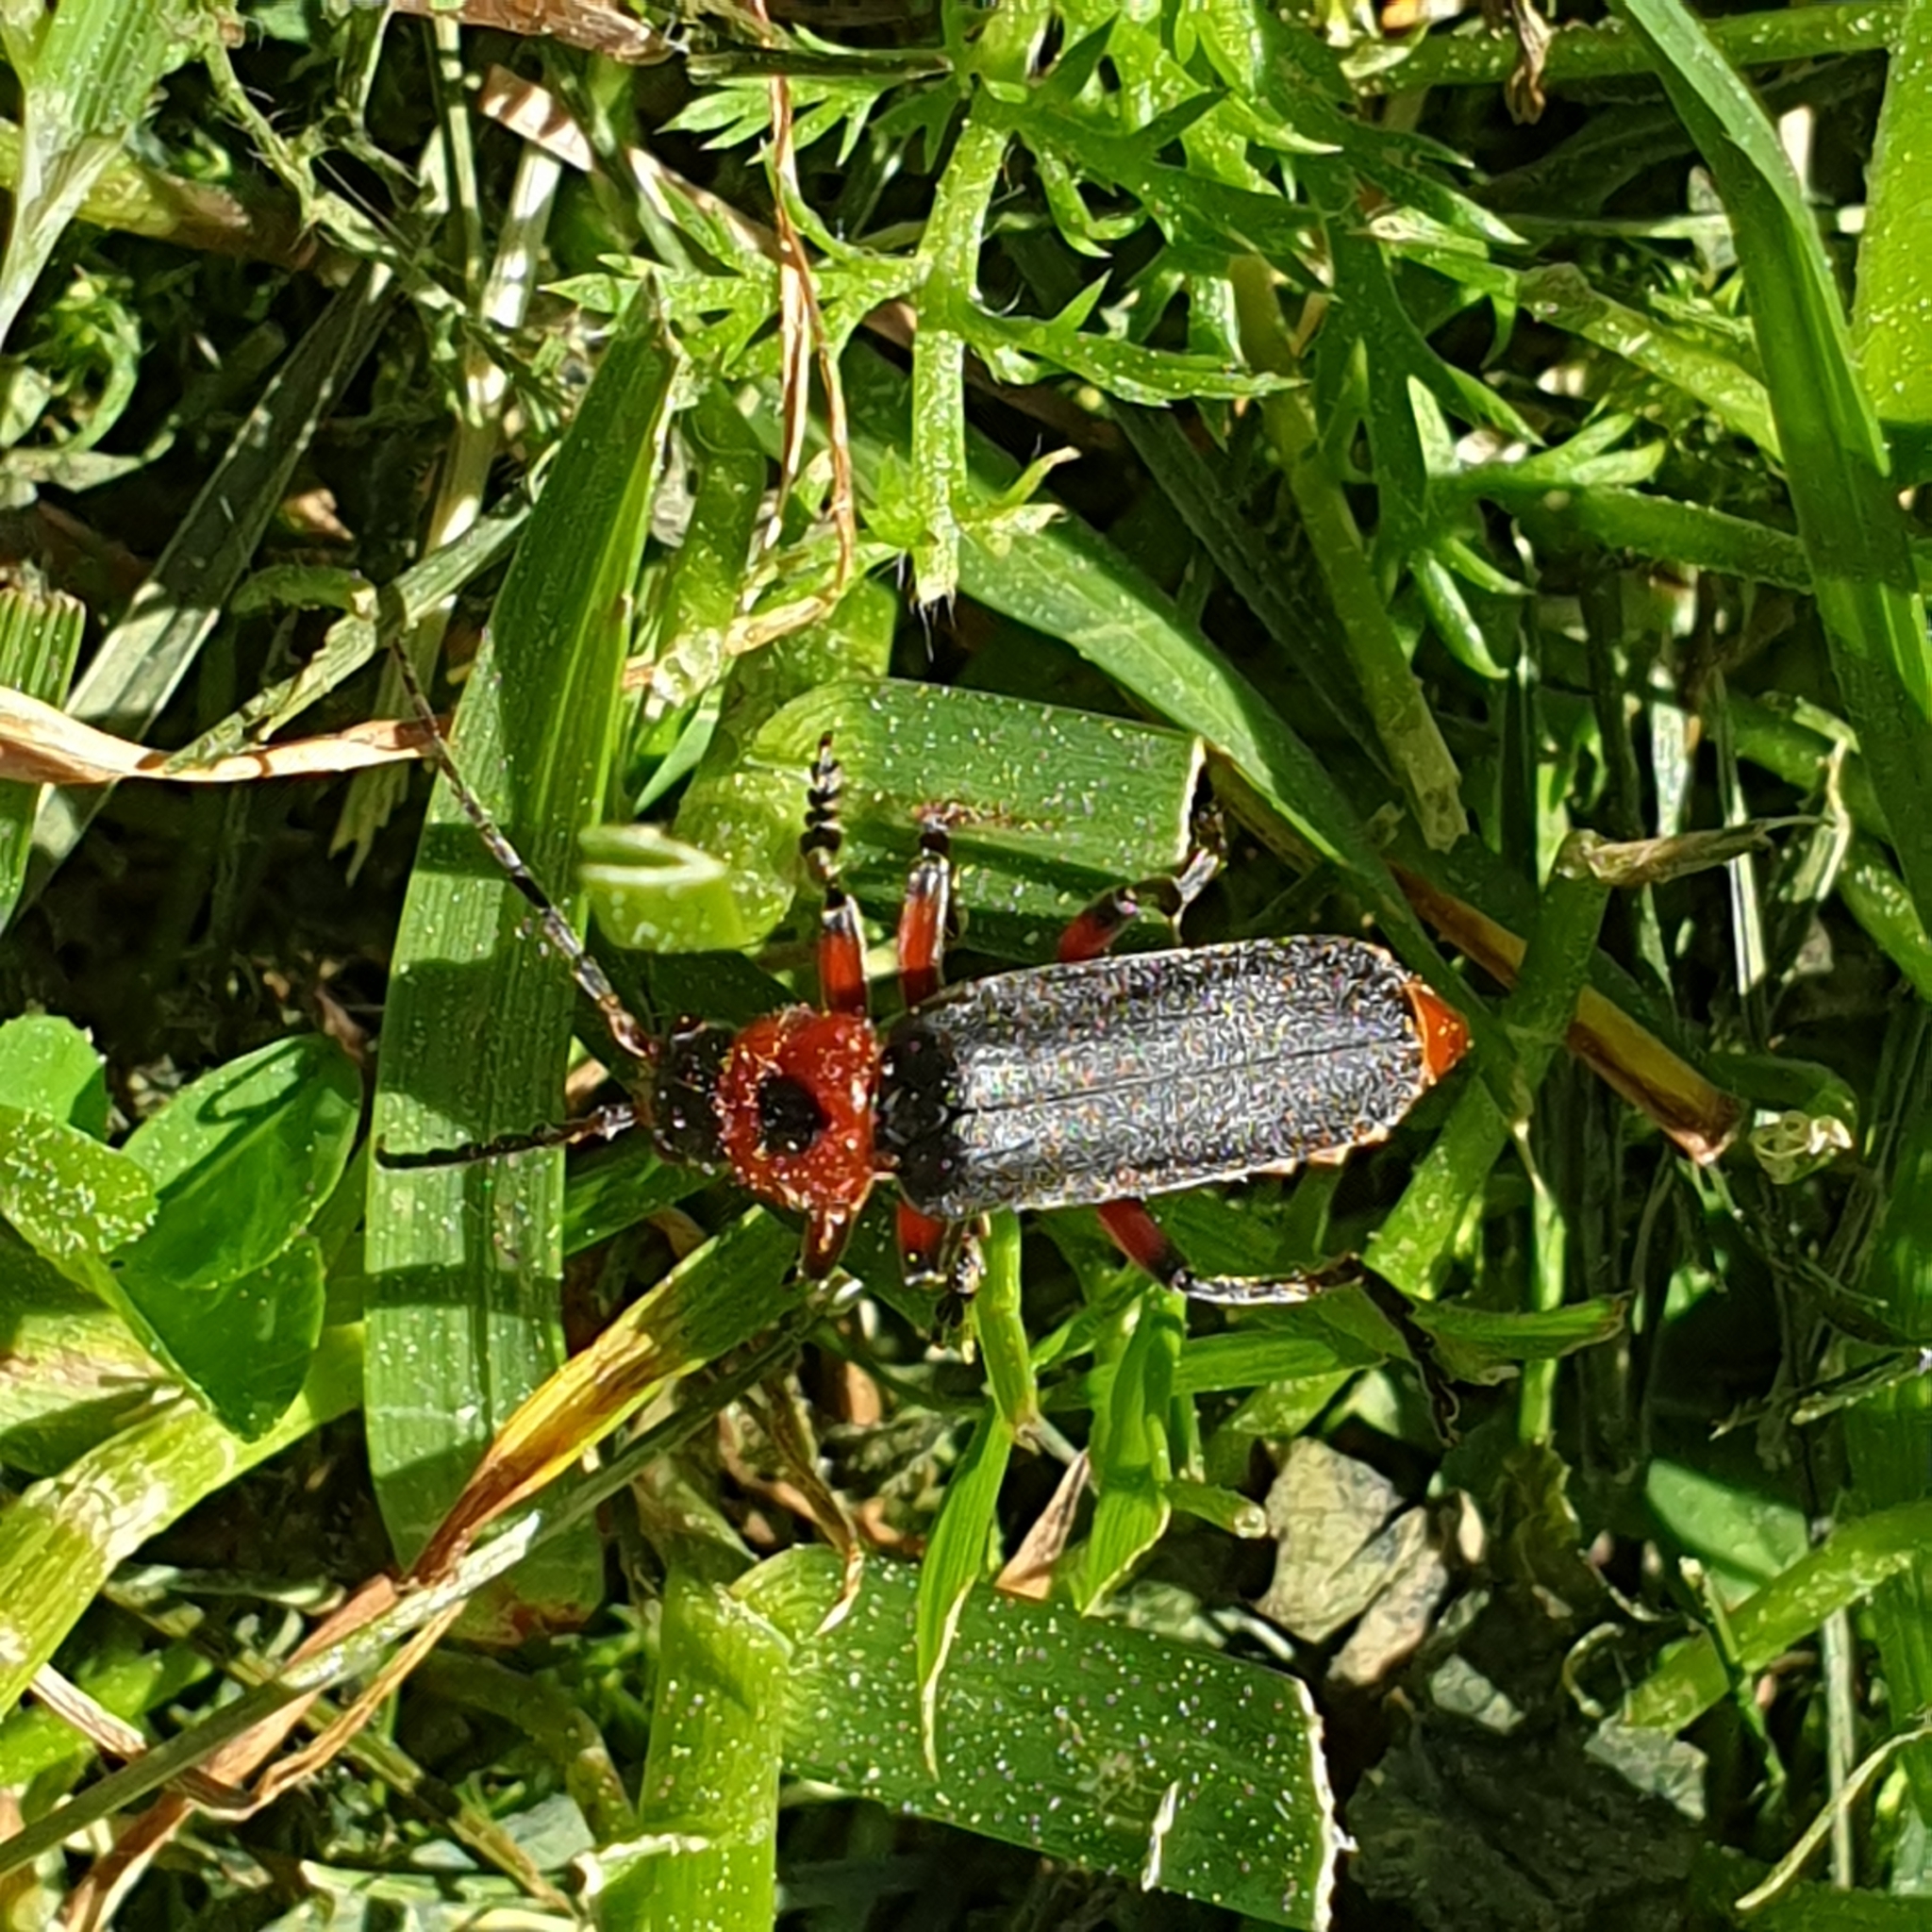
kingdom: Animalia
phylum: Arthropoda
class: Insecta
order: Coleoptera
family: Cantharidae
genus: Cantharis
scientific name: Cantharis rustica
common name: Soldier beetle
